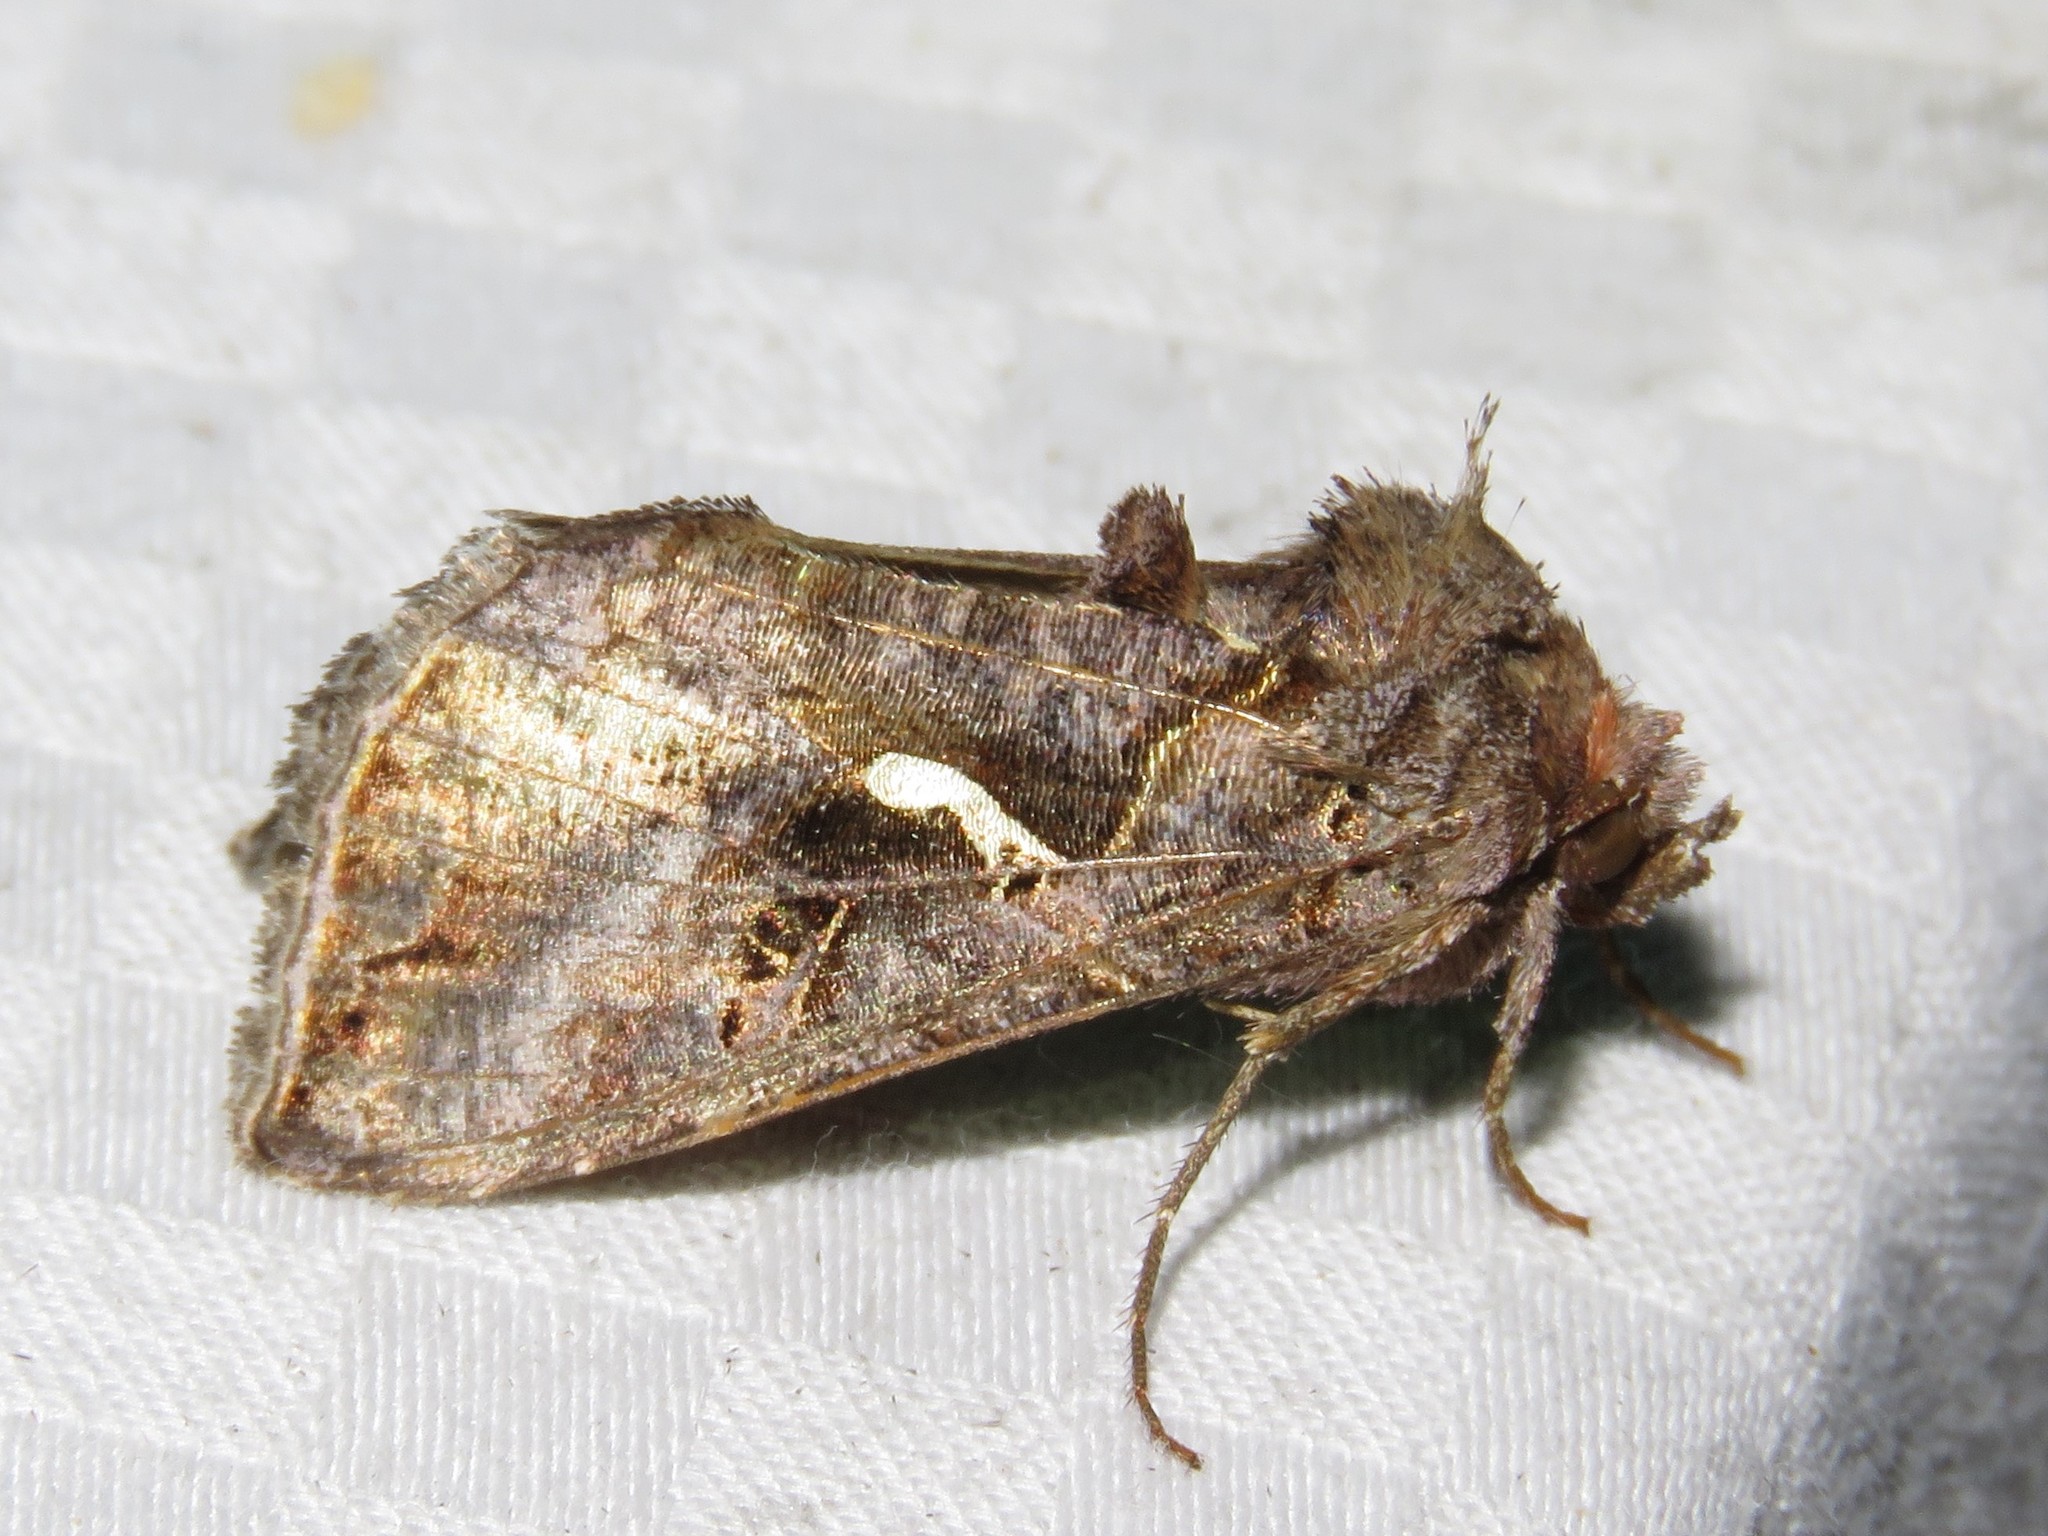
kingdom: Animalia
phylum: Arthropoda
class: Insecta
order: Lepidoptera
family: Noctuidae
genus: Autographa
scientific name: Autographa precationis
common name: Common looper moth
